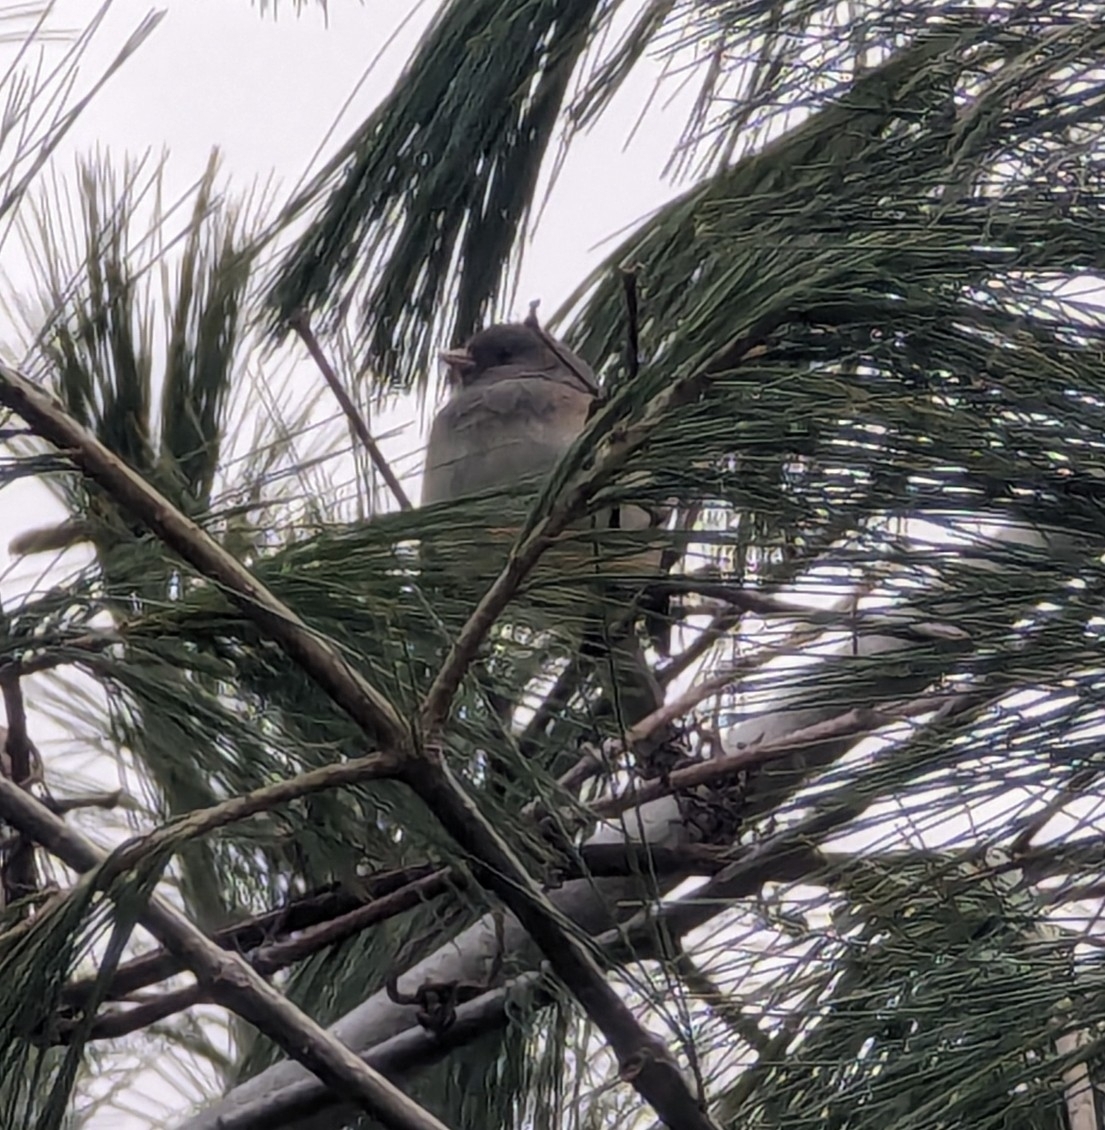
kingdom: Animalia
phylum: Chordata
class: Aves
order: Passeriformes
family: Passerellidae
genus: Junco
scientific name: Junco hyemalis
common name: Dark-eyed junco
